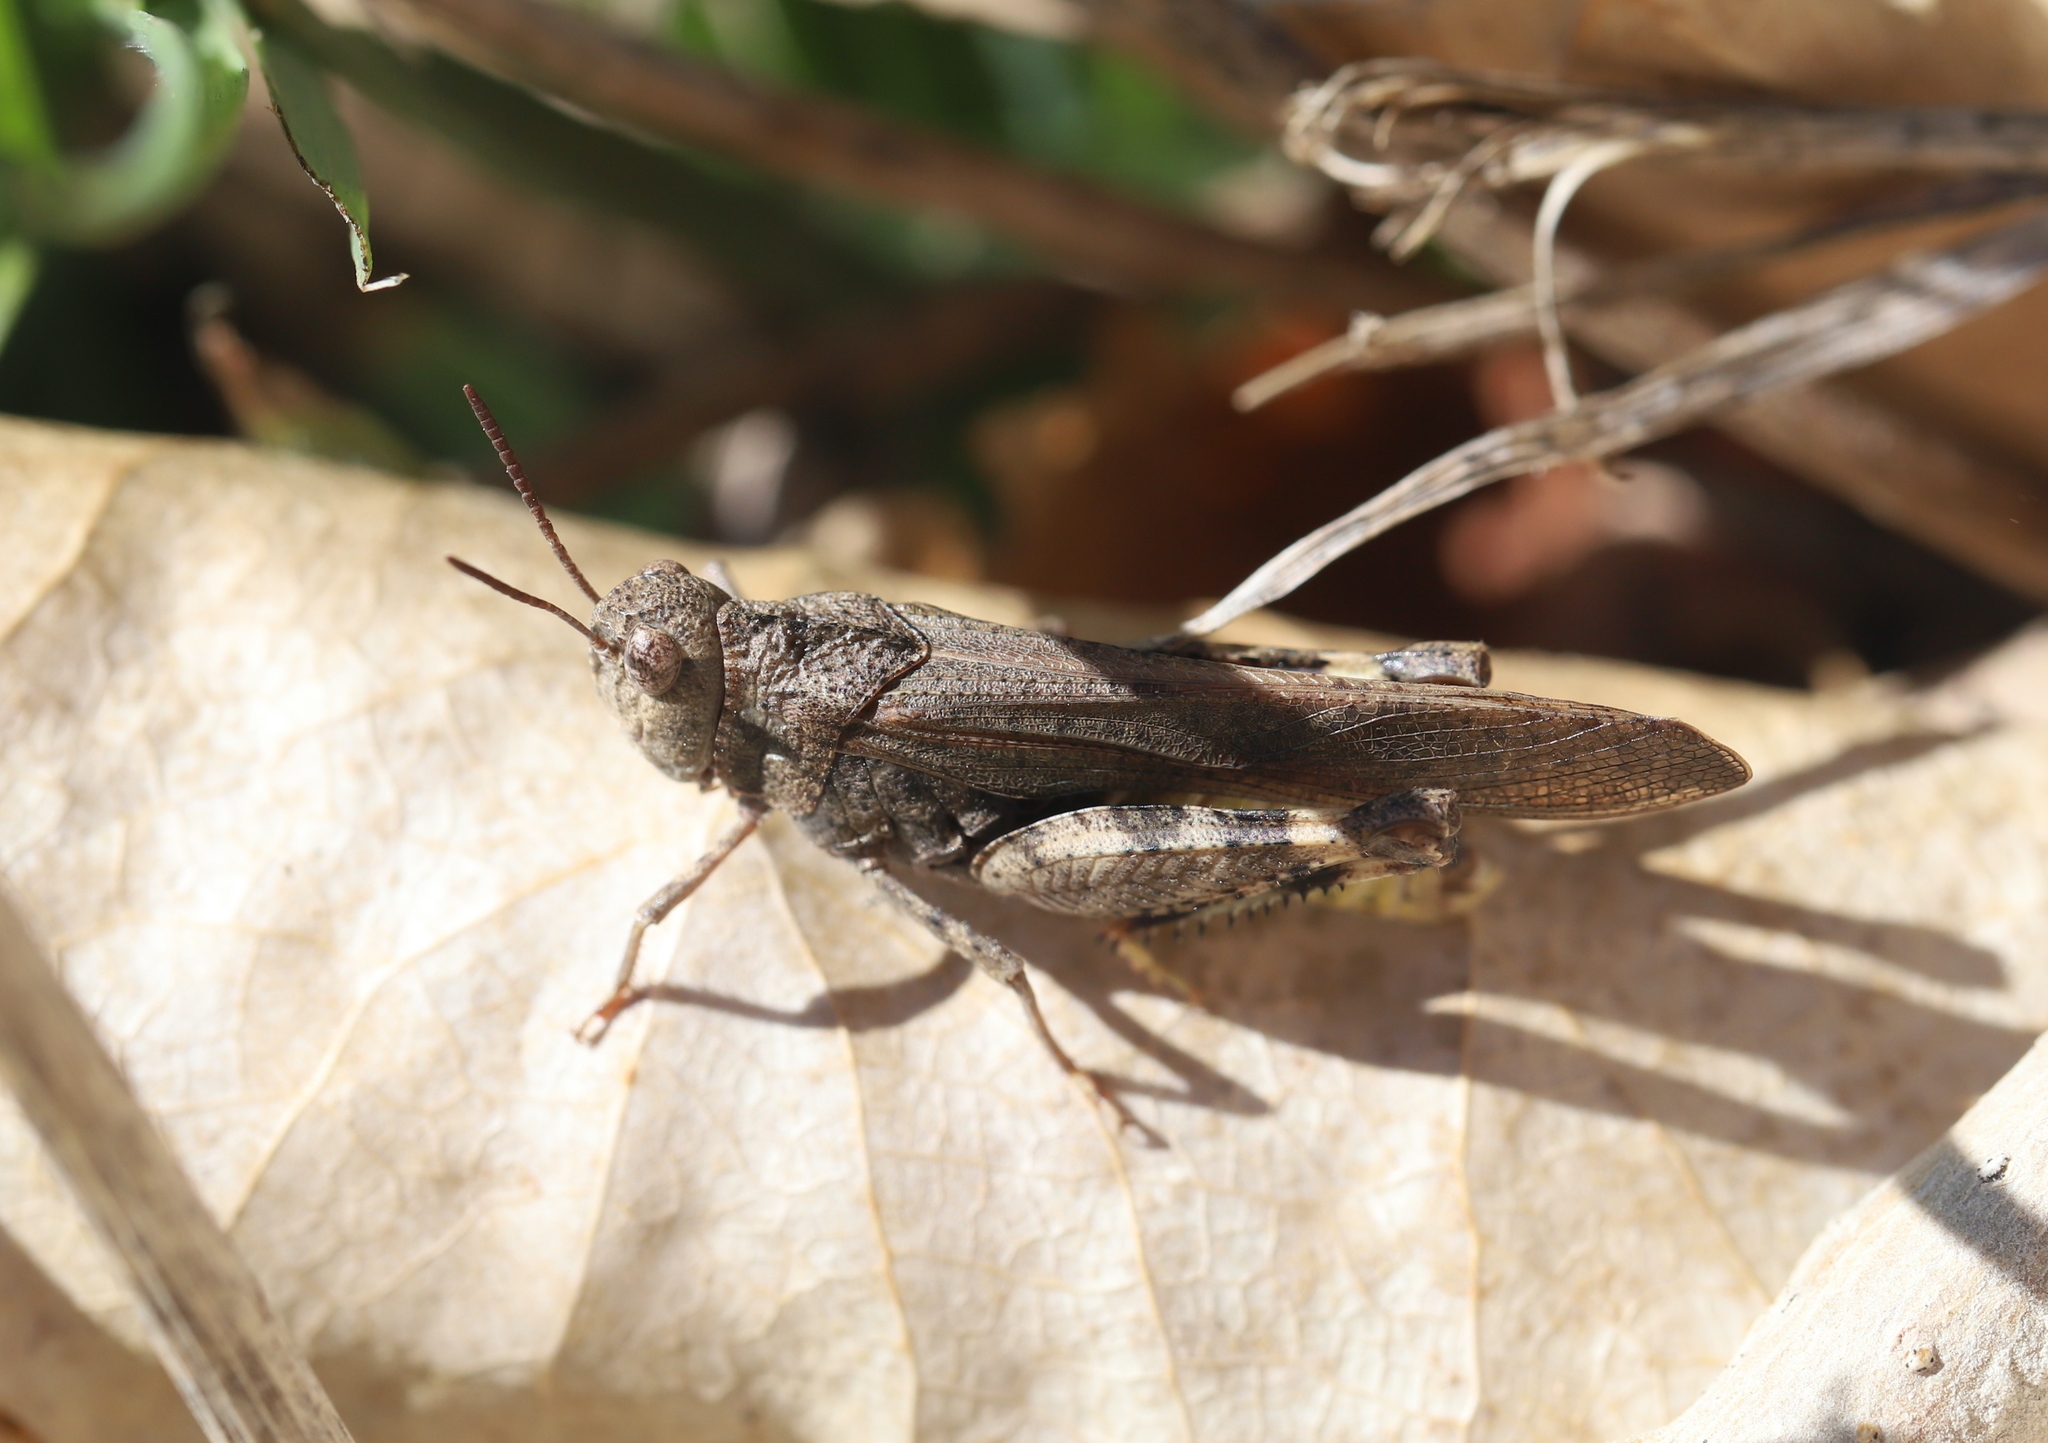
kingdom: Animalia
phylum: Arthropoda
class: Insecta
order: Orthoptera
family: Acrididae
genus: Arphia
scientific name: Arphia conspersa
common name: Speckle-winged rangeland grasshopper
